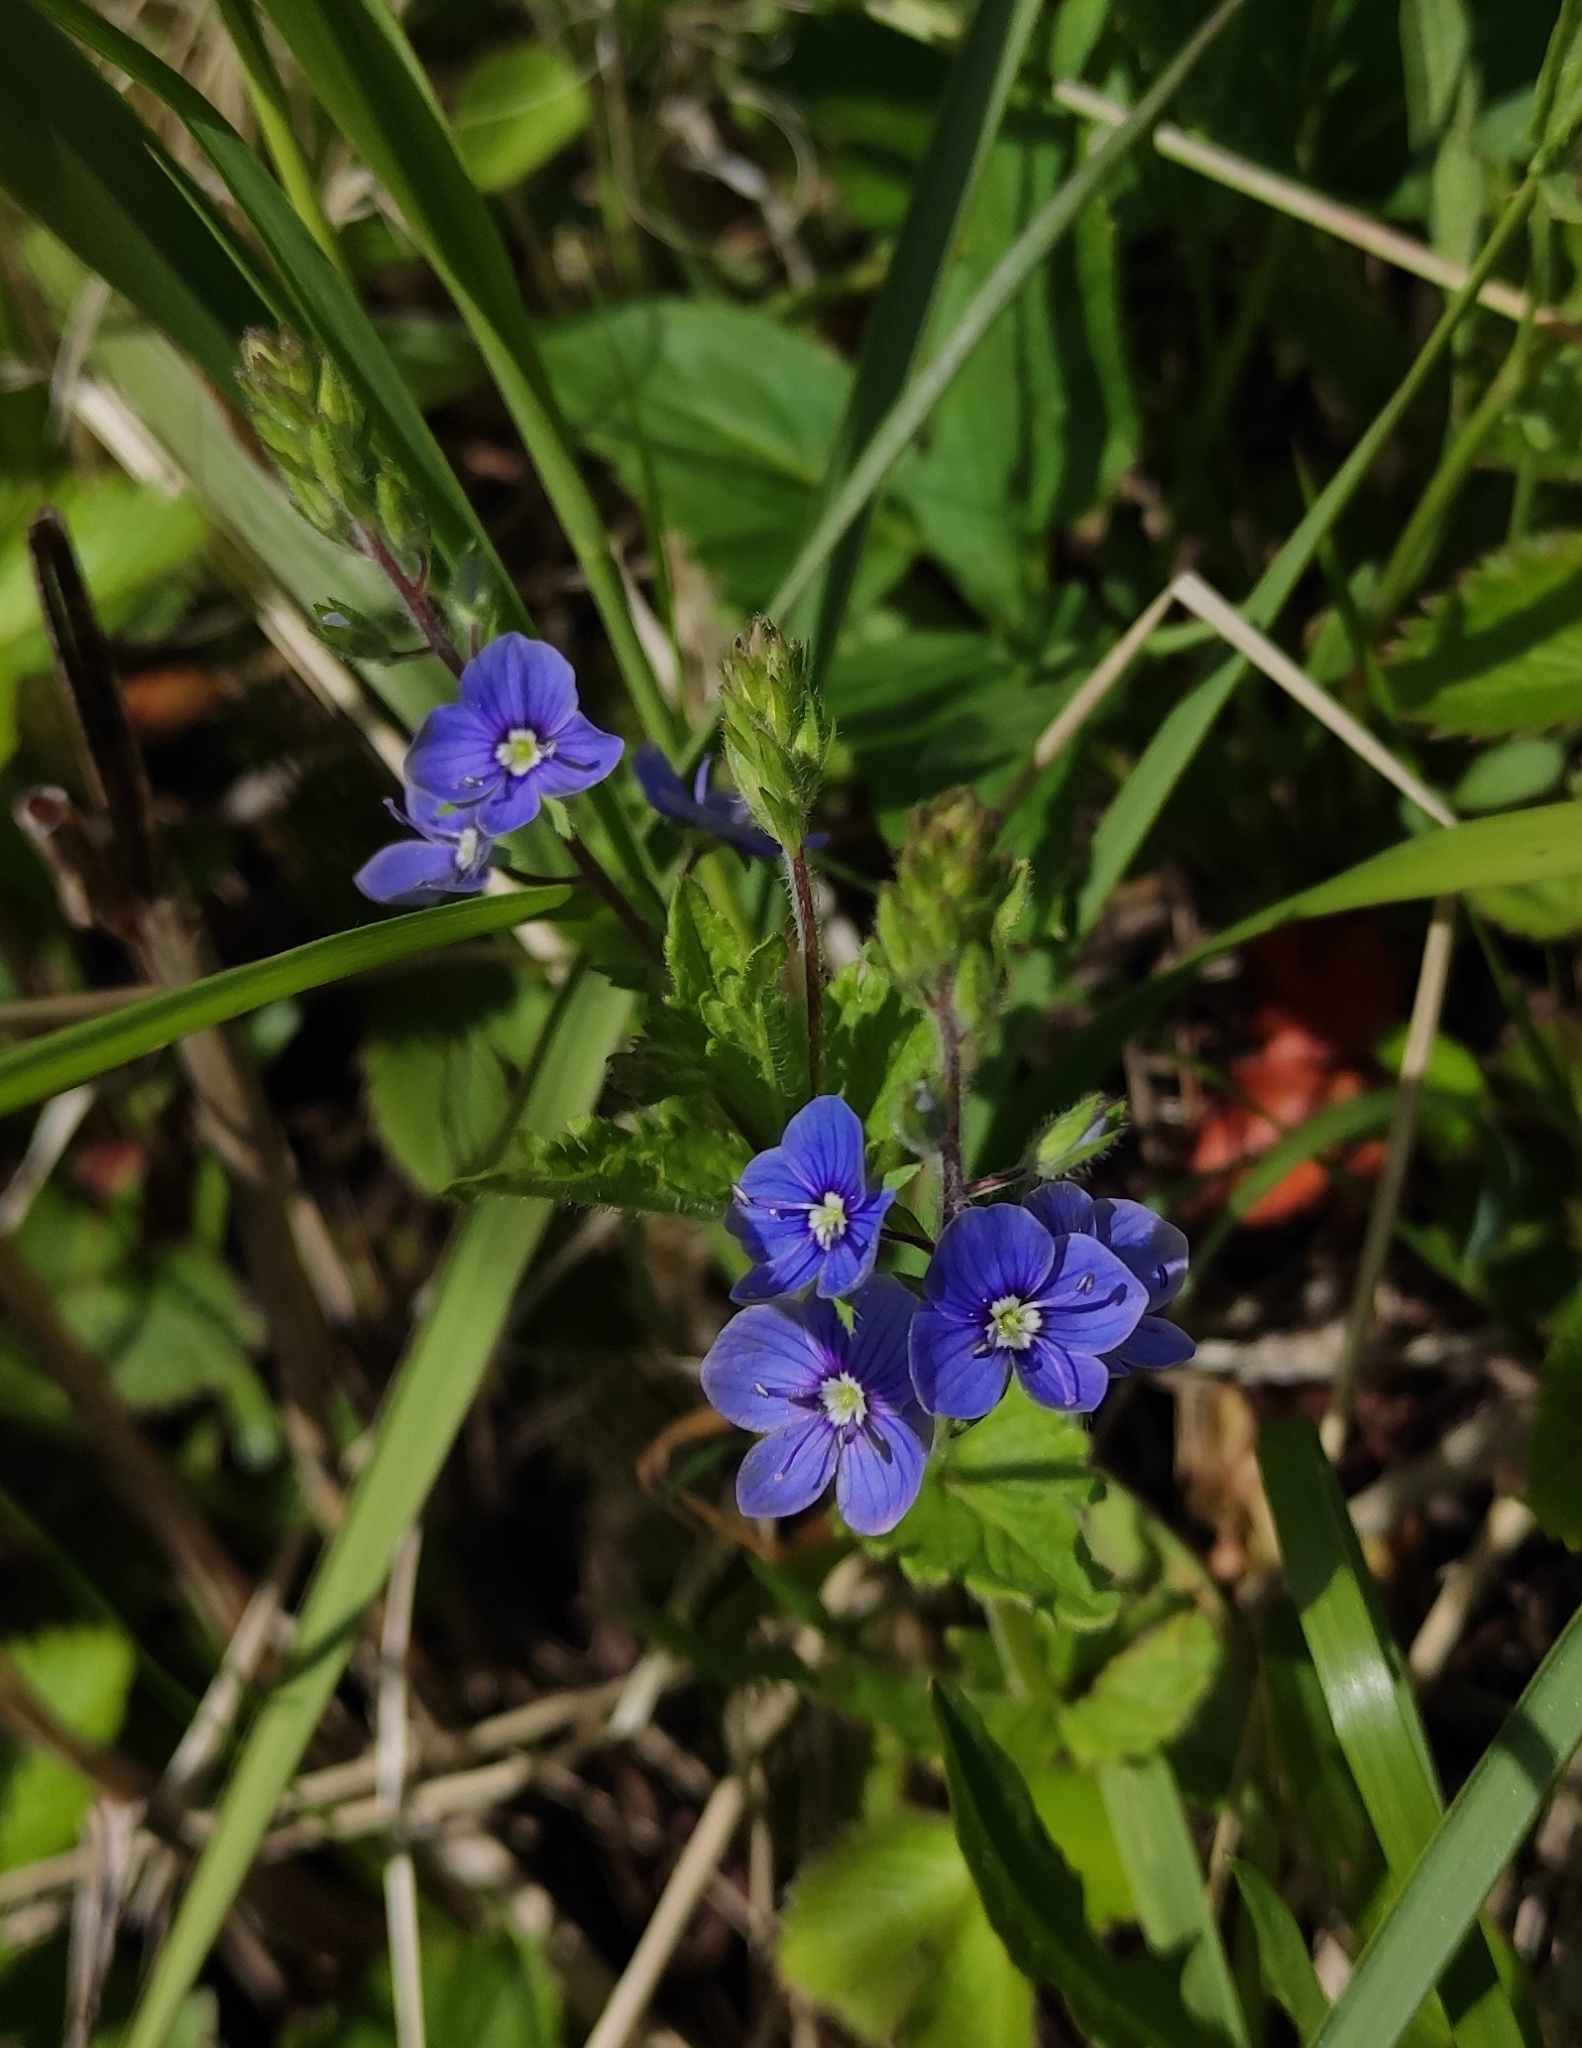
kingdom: Plantae
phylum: Tracheophyta
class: Magnoliopsida
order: Lamiales
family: Plantaginaceae
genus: Veronica
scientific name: Veronica chamaedrys
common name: Germander speedwell
